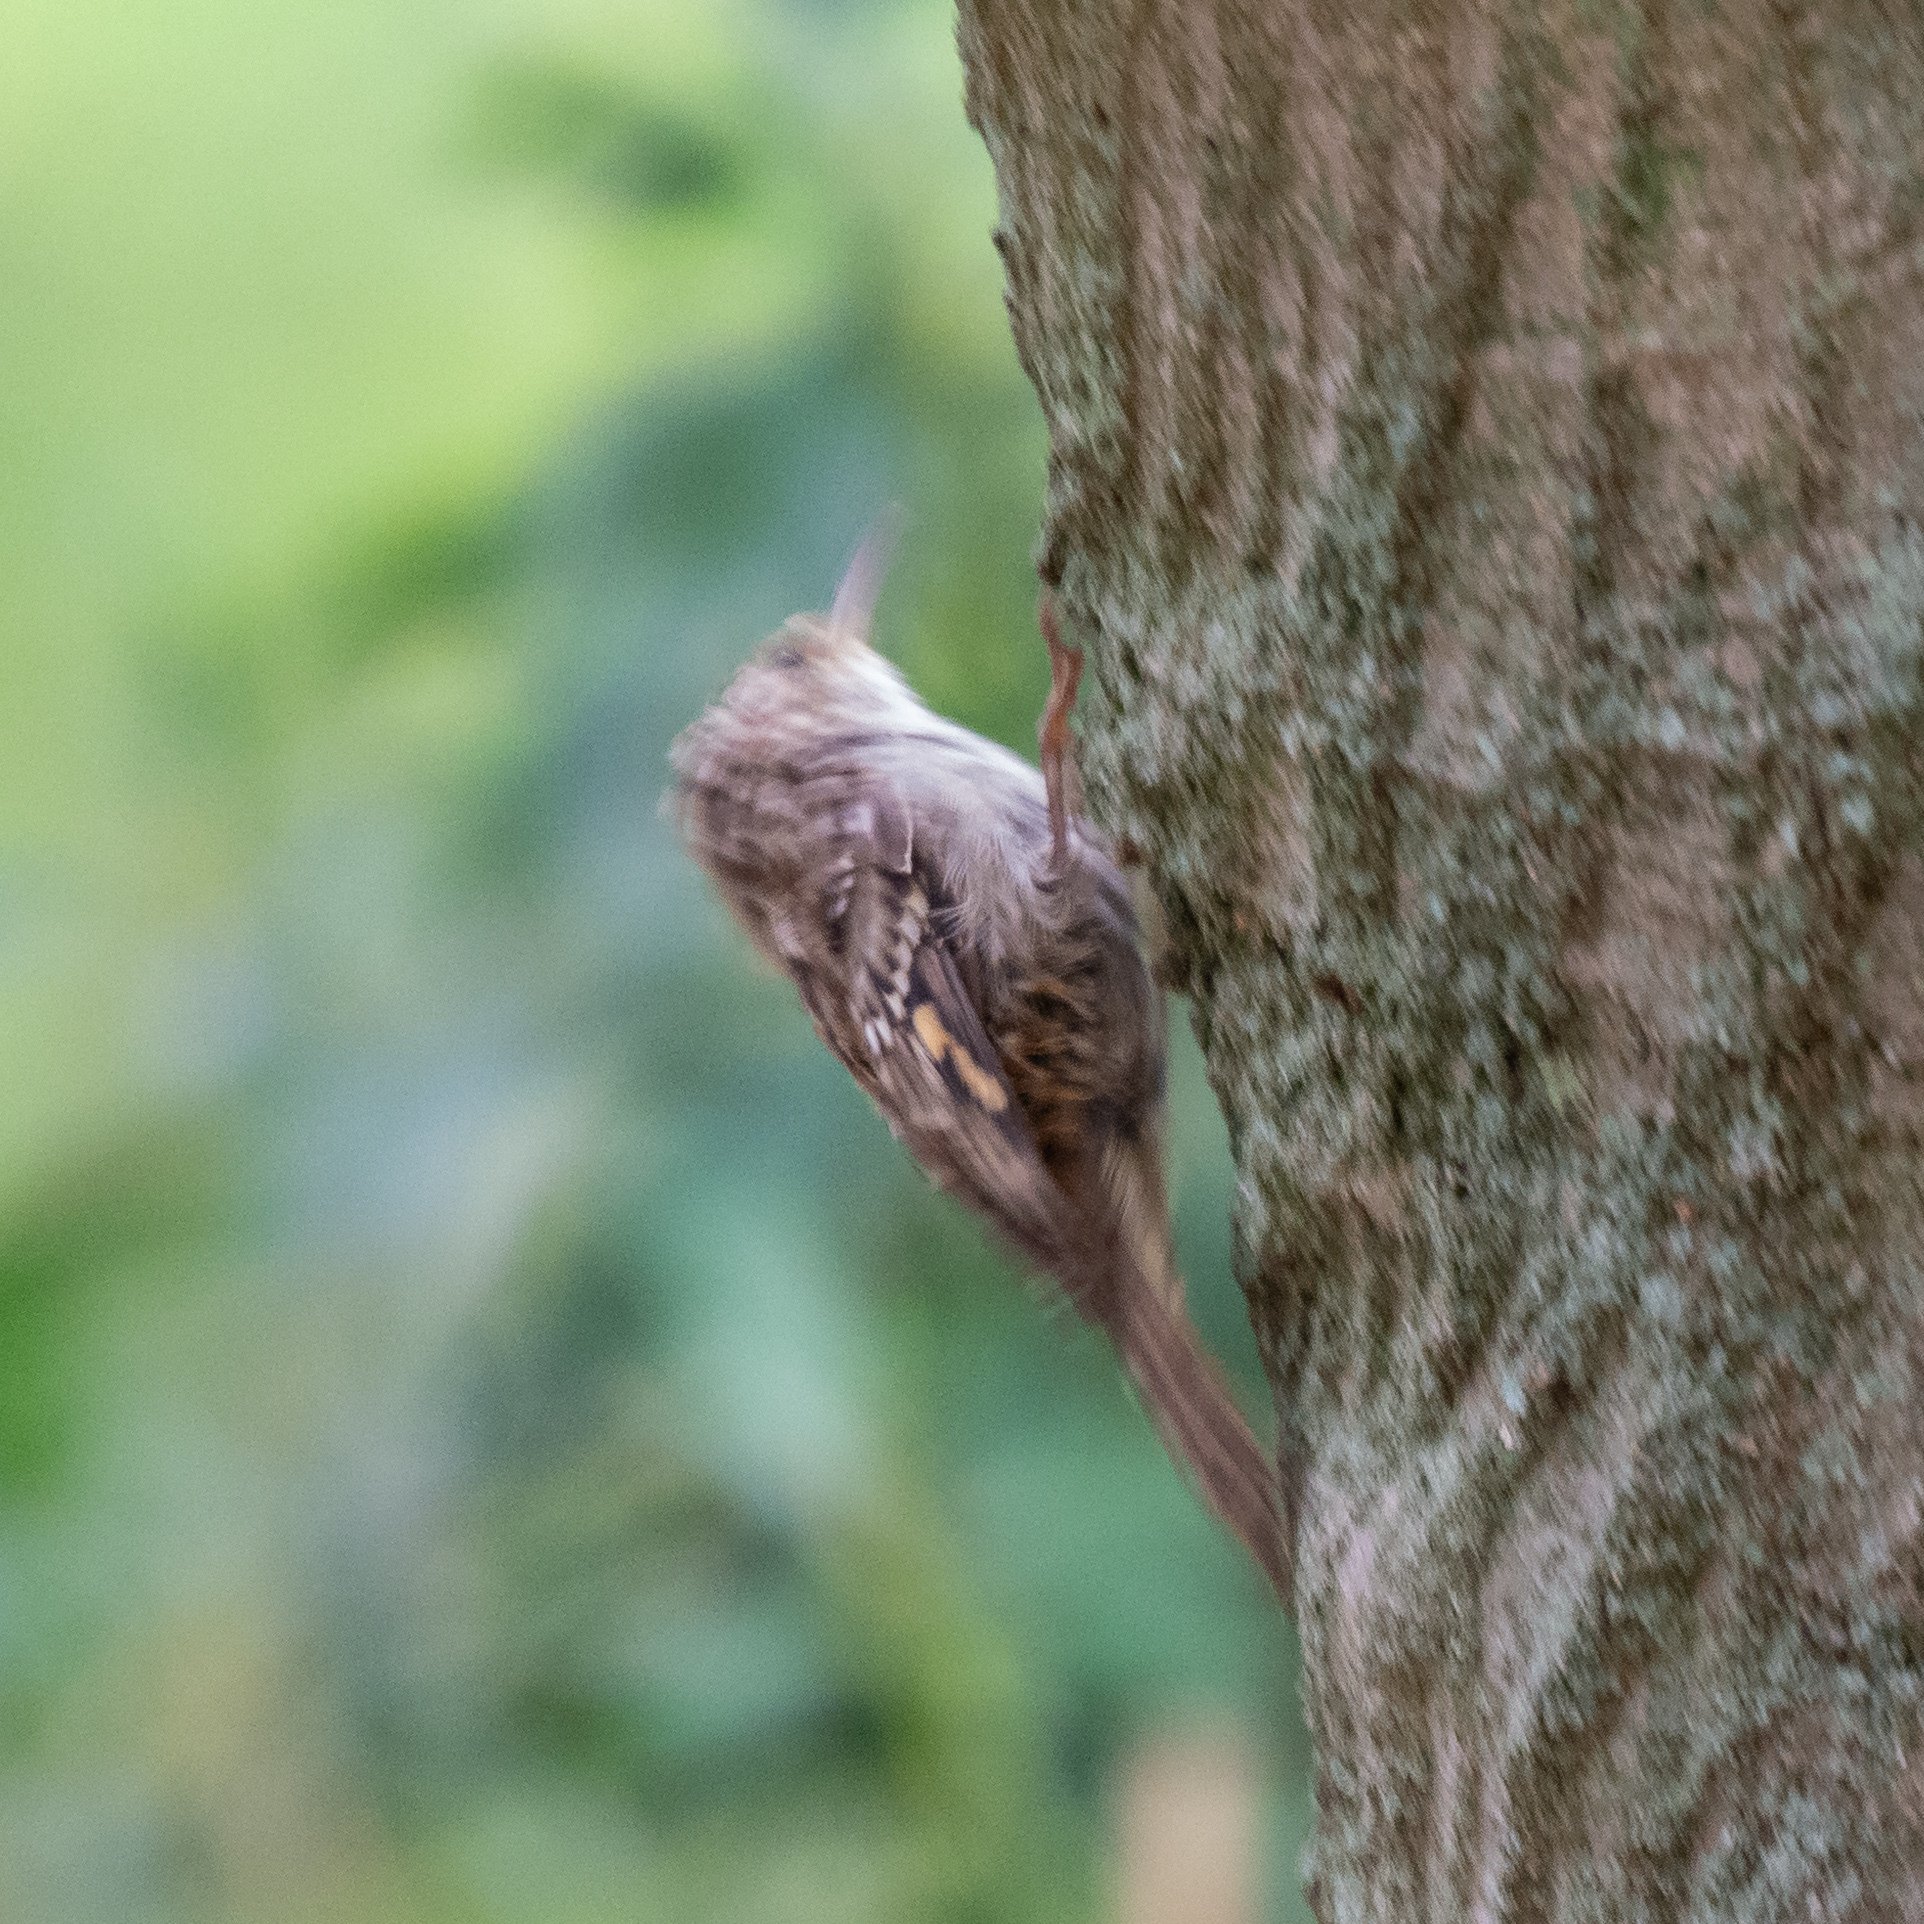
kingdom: Animalia
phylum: Chordata
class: Aves
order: Passeriformes
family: Certhiidae
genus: Certhia
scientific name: Certhia brachydactyla
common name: Short-toed treecreeper
